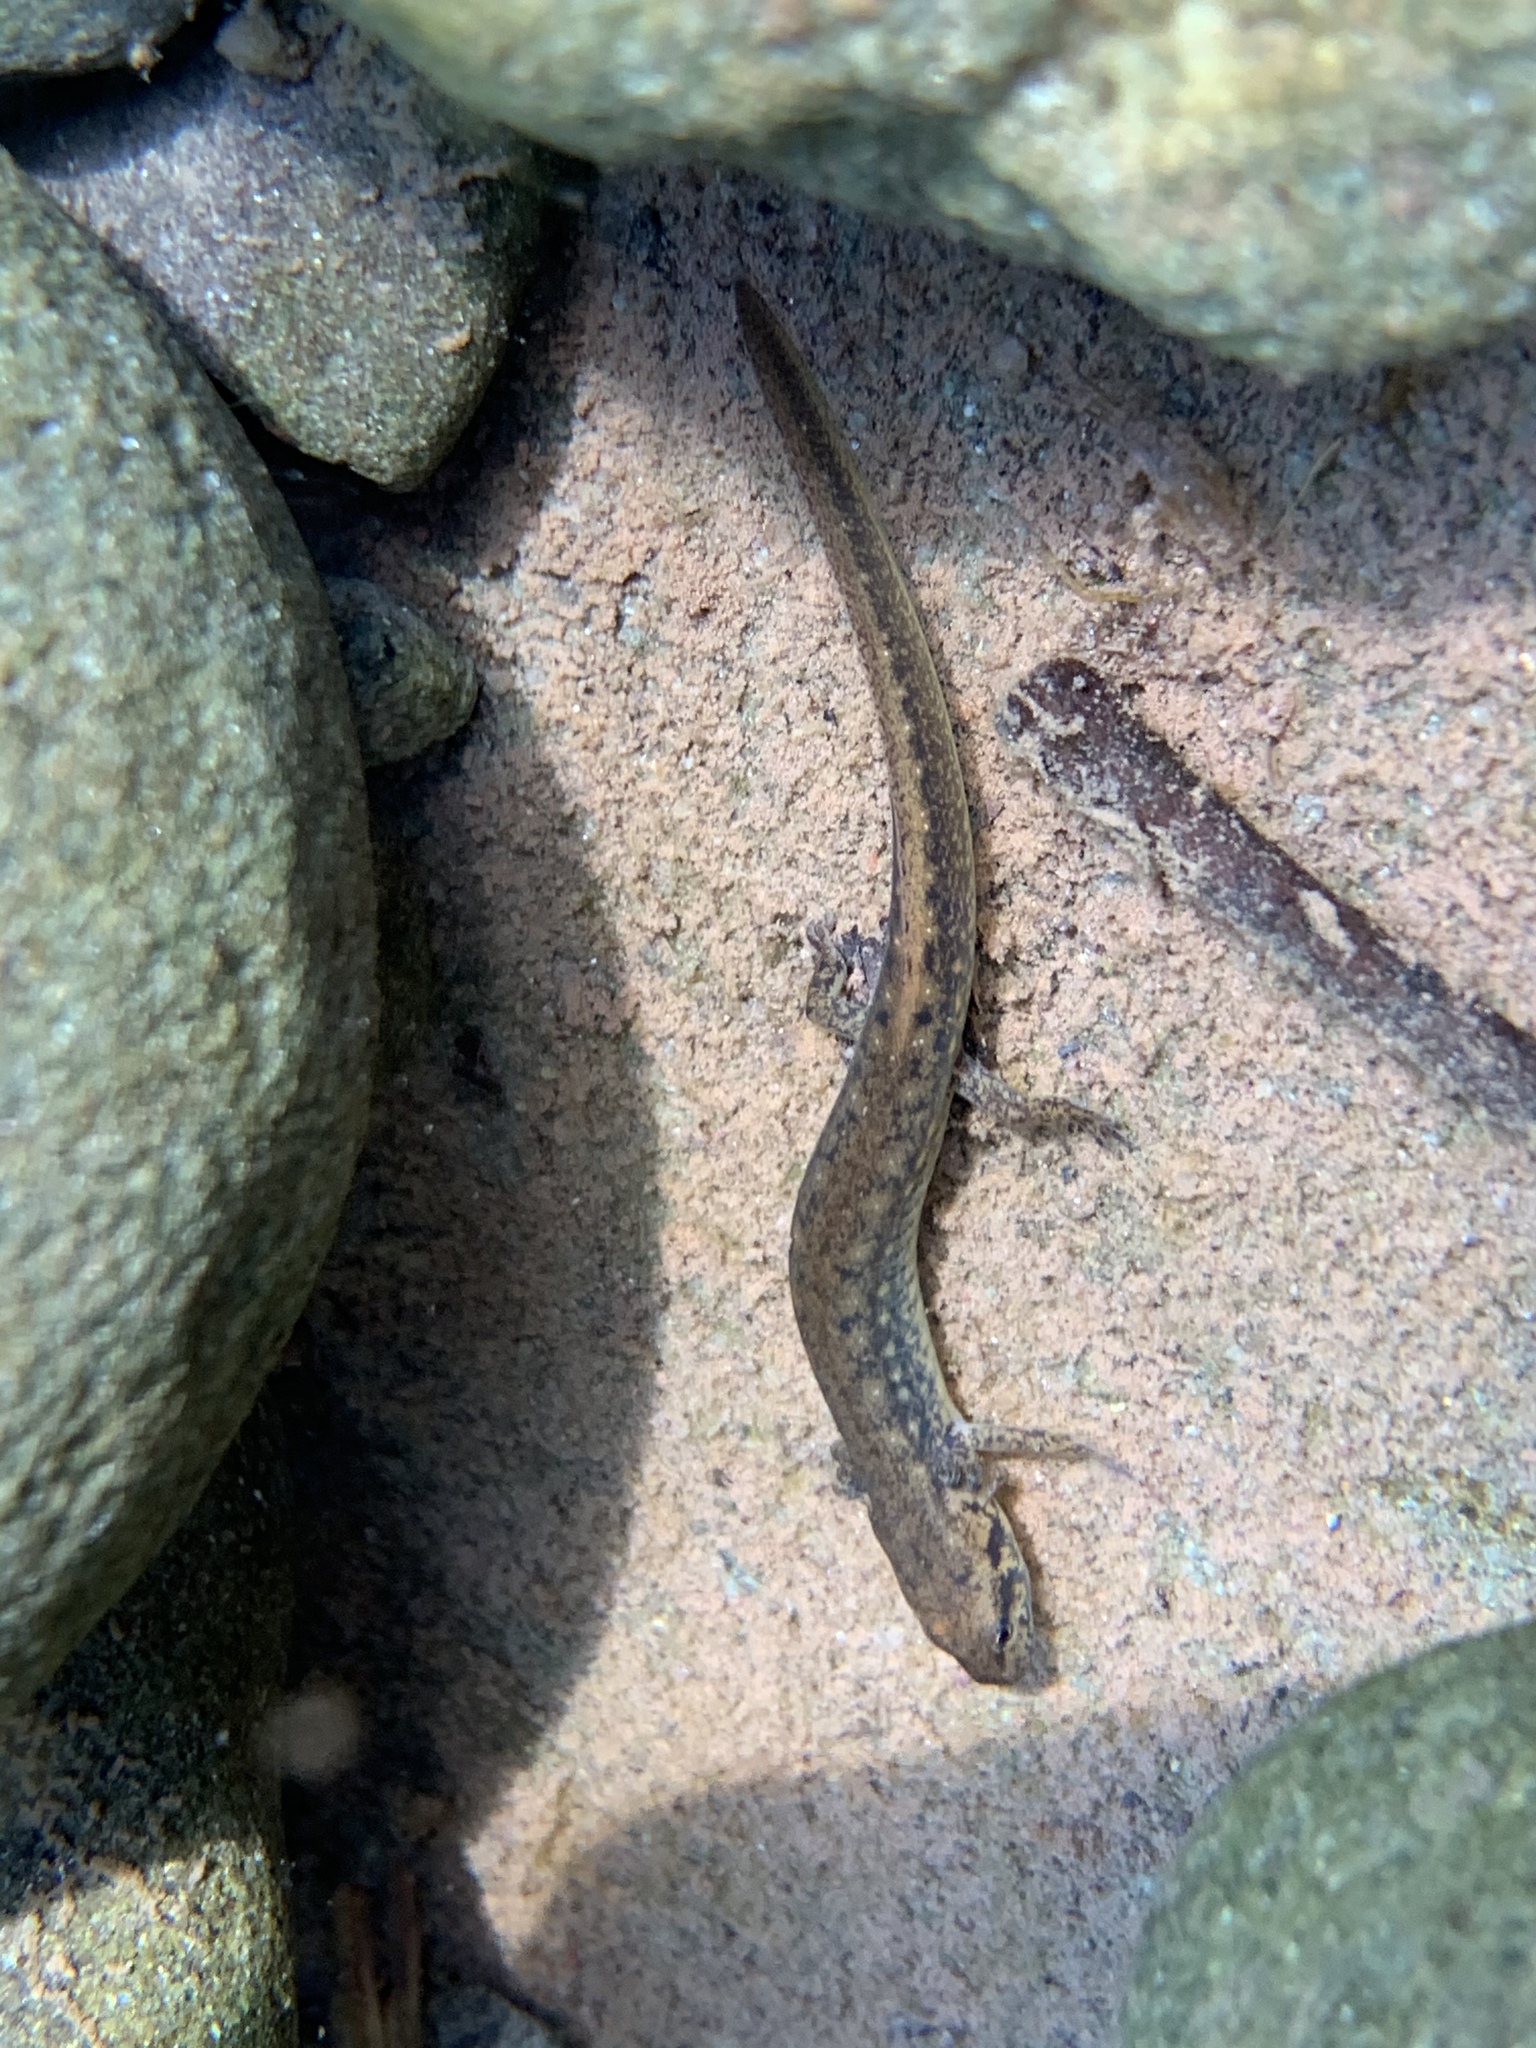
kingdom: Animalia
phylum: Chordata
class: Amphibia
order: Caudata
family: Plethodontidae
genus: Eurycea
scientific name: Eurycea bislineata
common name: Northern two-lined salamander
